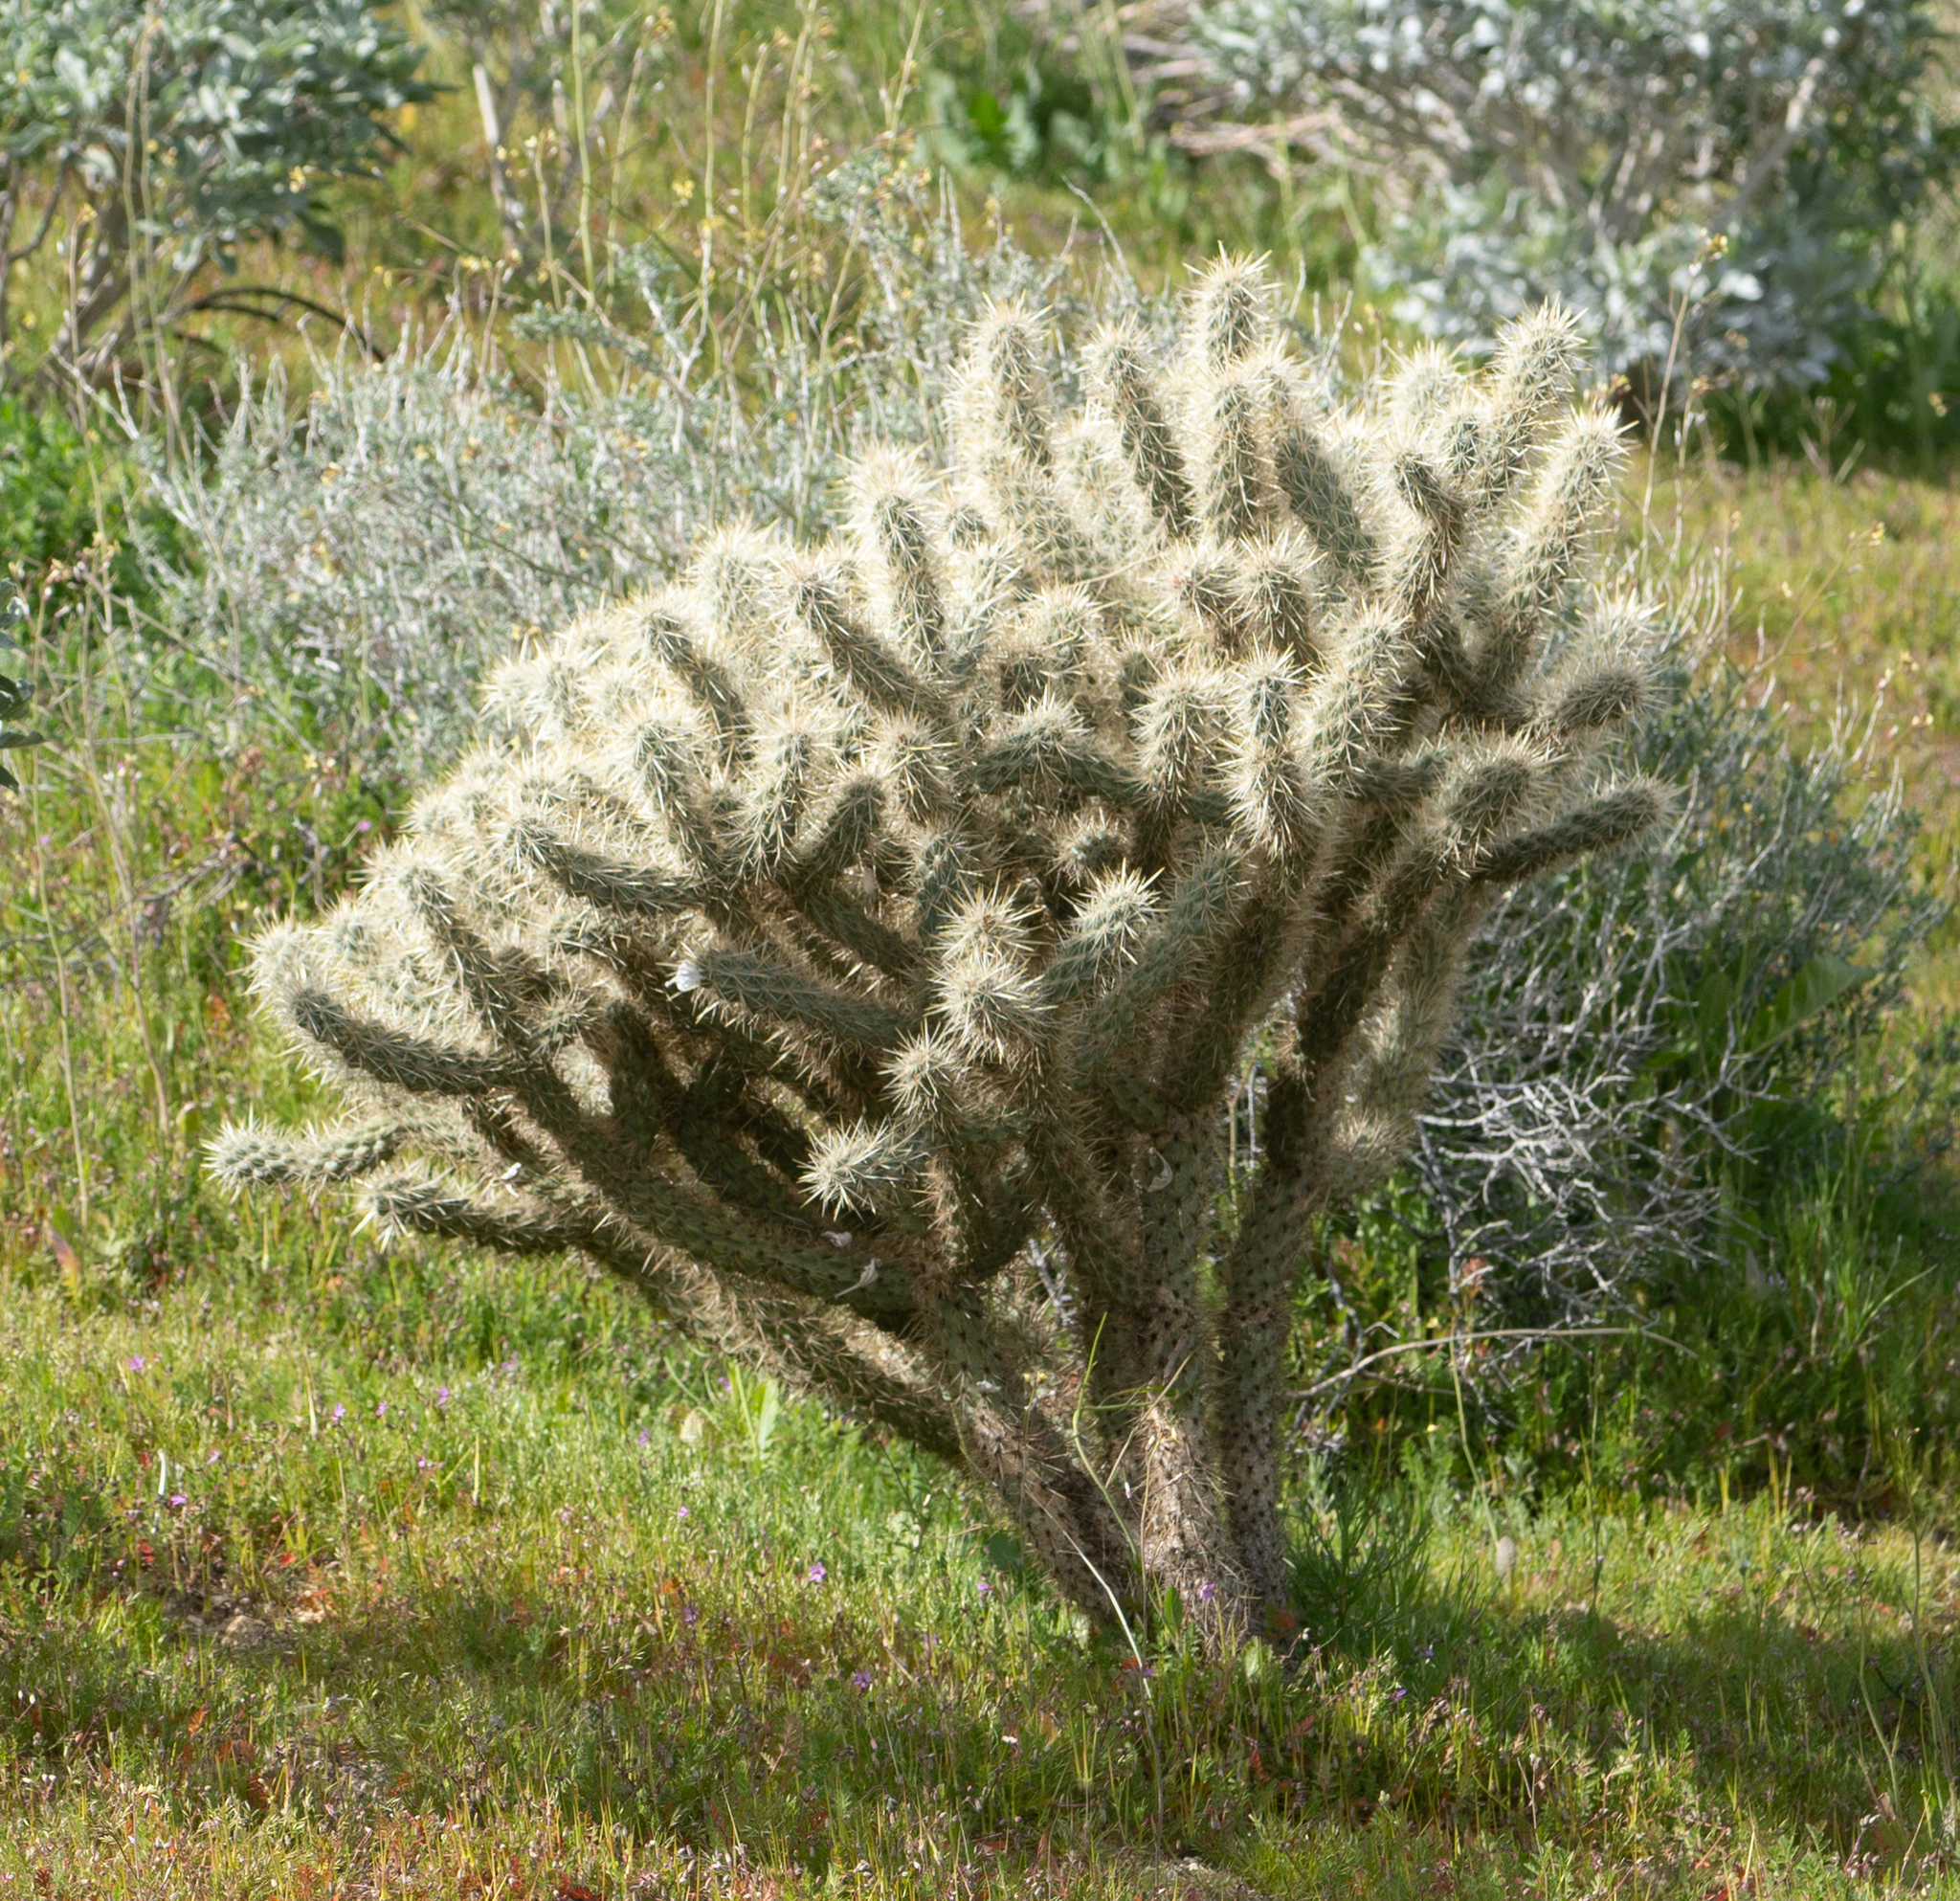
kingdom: Plantae
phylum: Tracheophyta
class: Magnoliopsida
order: Caryophyllales
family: Cactaceae
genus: Cylindropuntia
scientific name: Cylindropuntia echinocarpa
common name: Ground cholla
